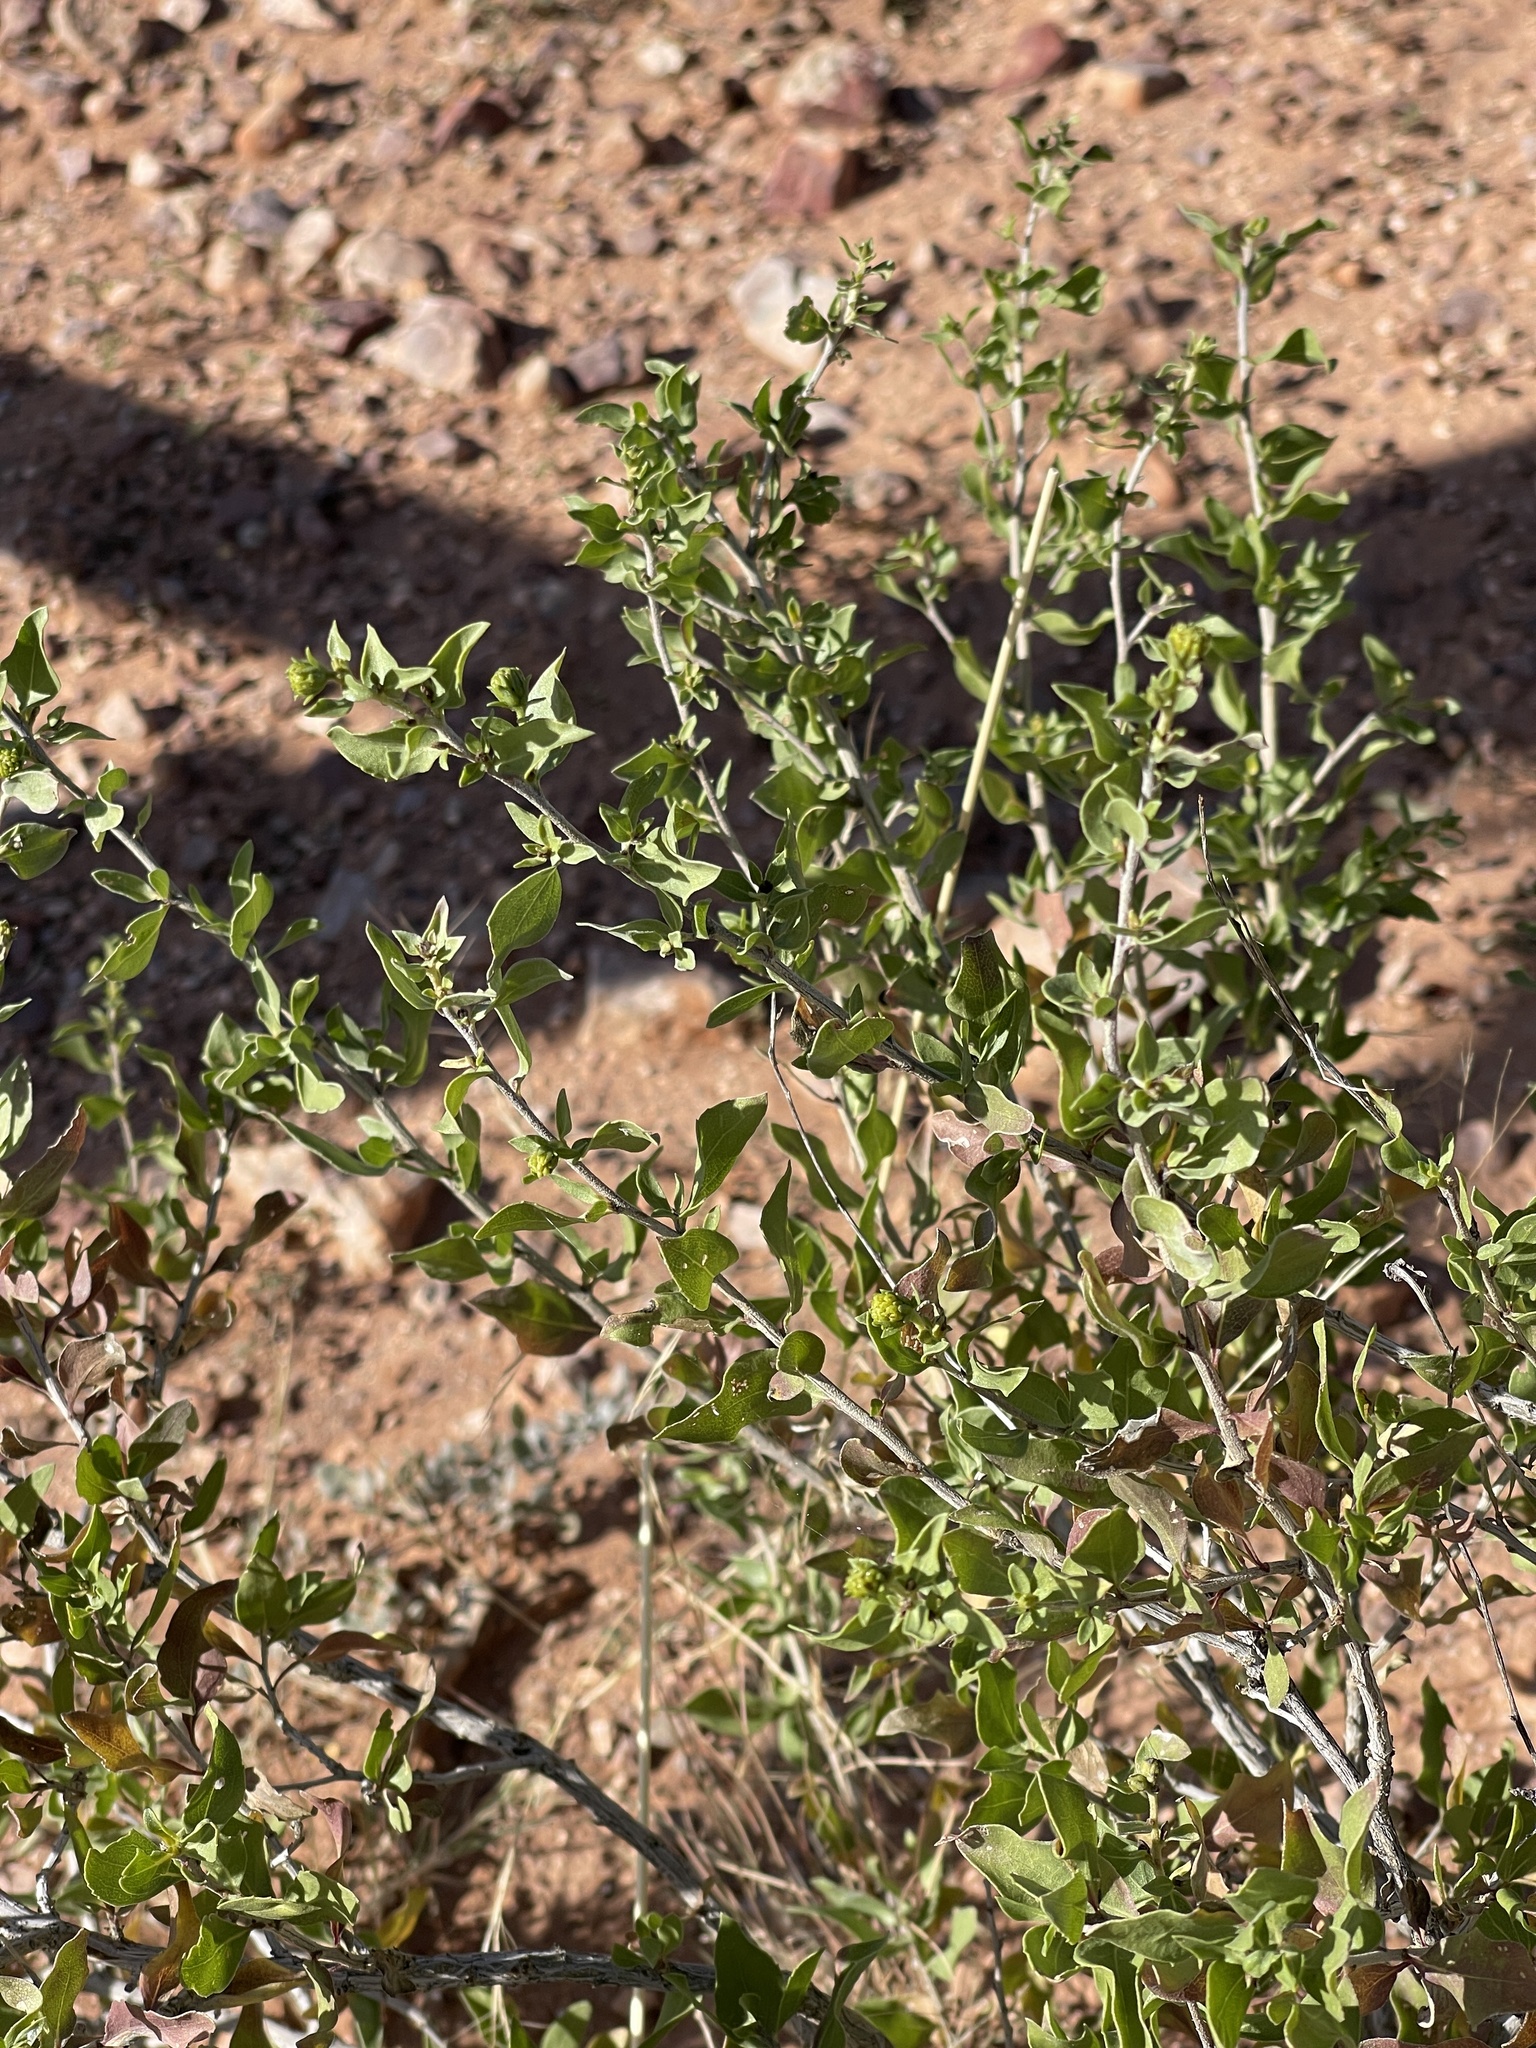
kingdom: Plantae
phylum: Tracheophyta
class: Magnoliopsida
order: Asterales
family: Asteraceae
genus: Flourensia
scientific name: Flourensia cernua
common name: Varnishbush
